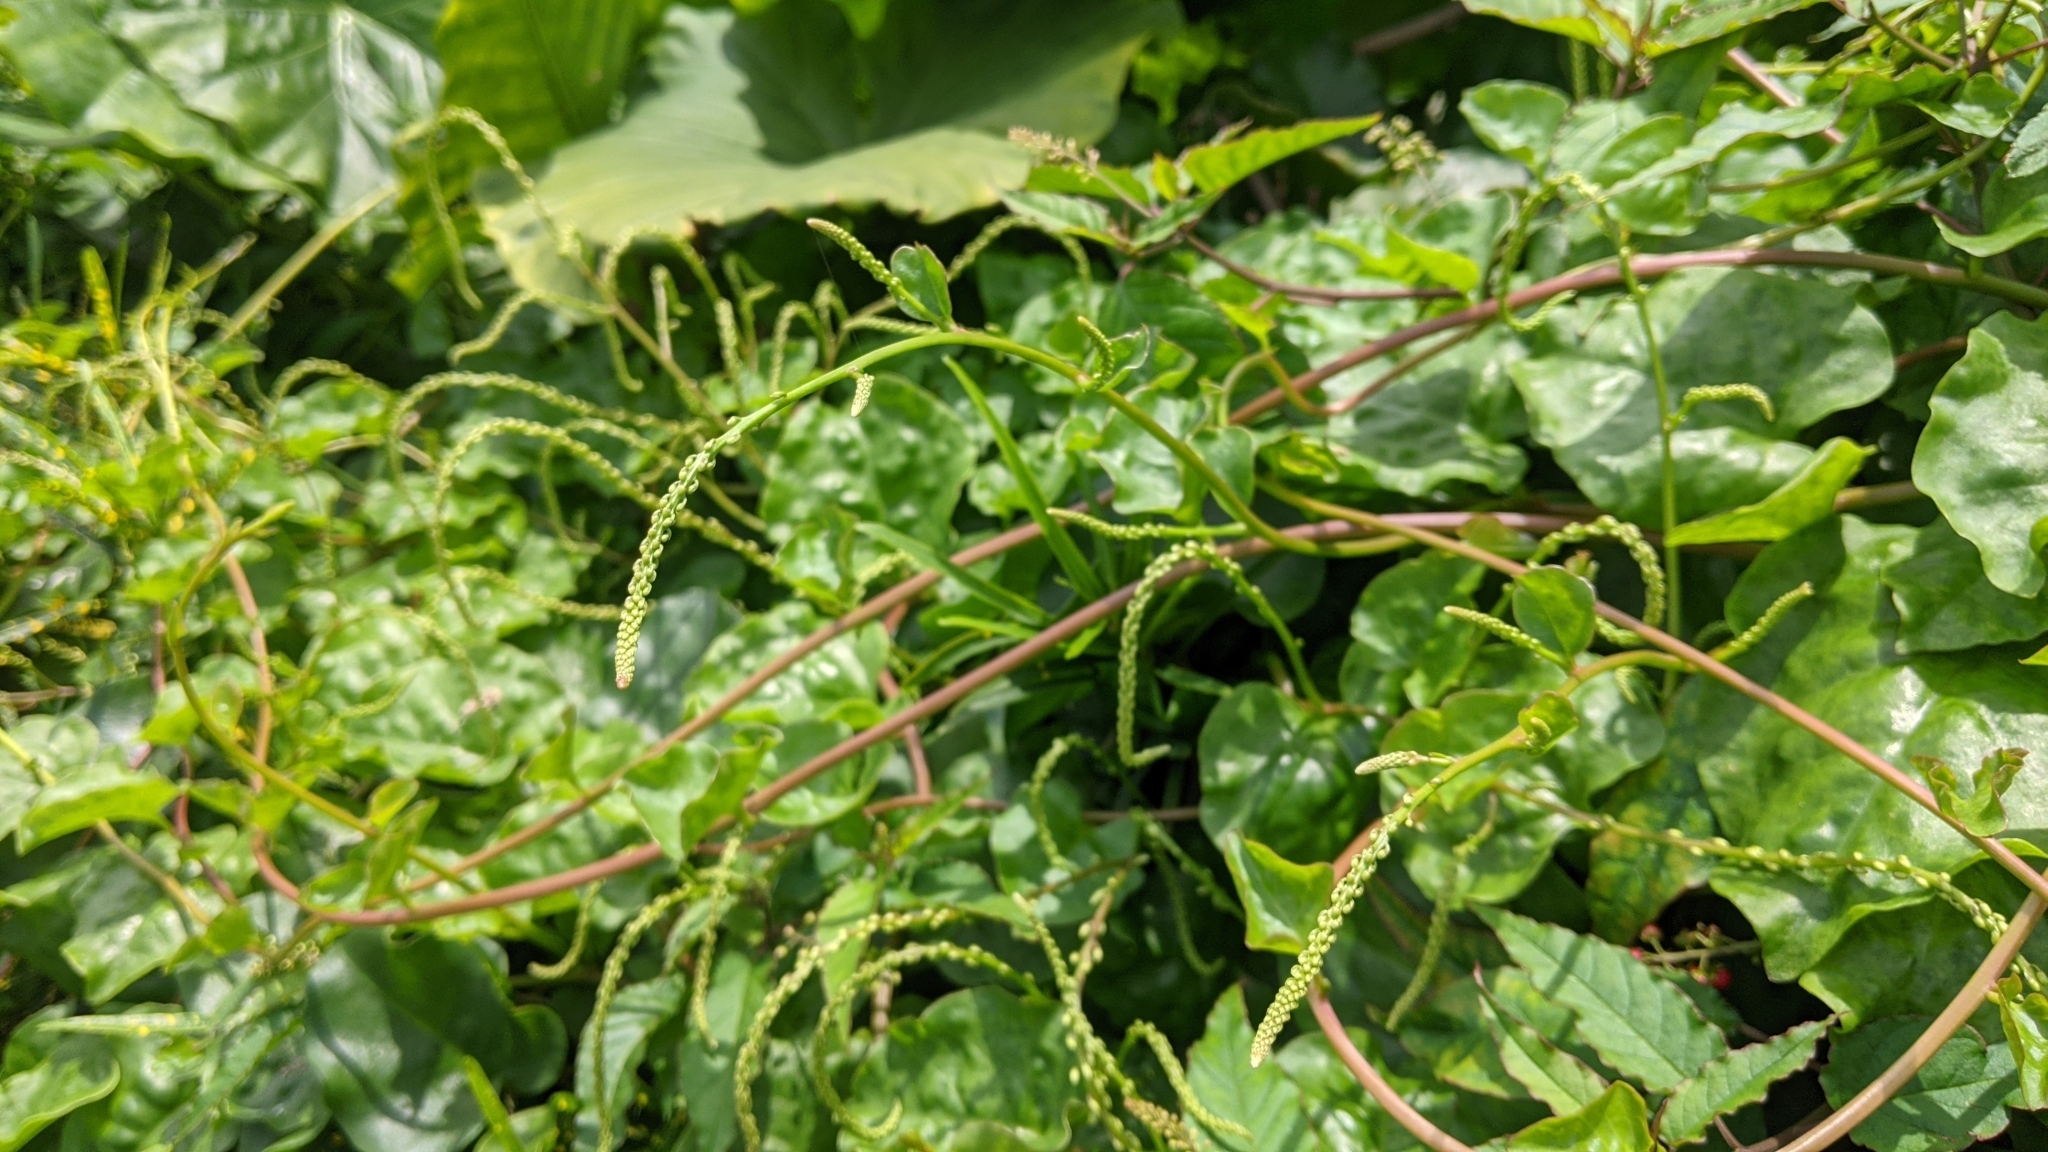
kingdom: Plantae
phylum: Tracheophyta
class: Magnoliopsida
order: Caryophyllales
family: Basellaceae
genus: Anredera
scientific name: Anredera cordifolia
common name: Heartleaf madeiravine
